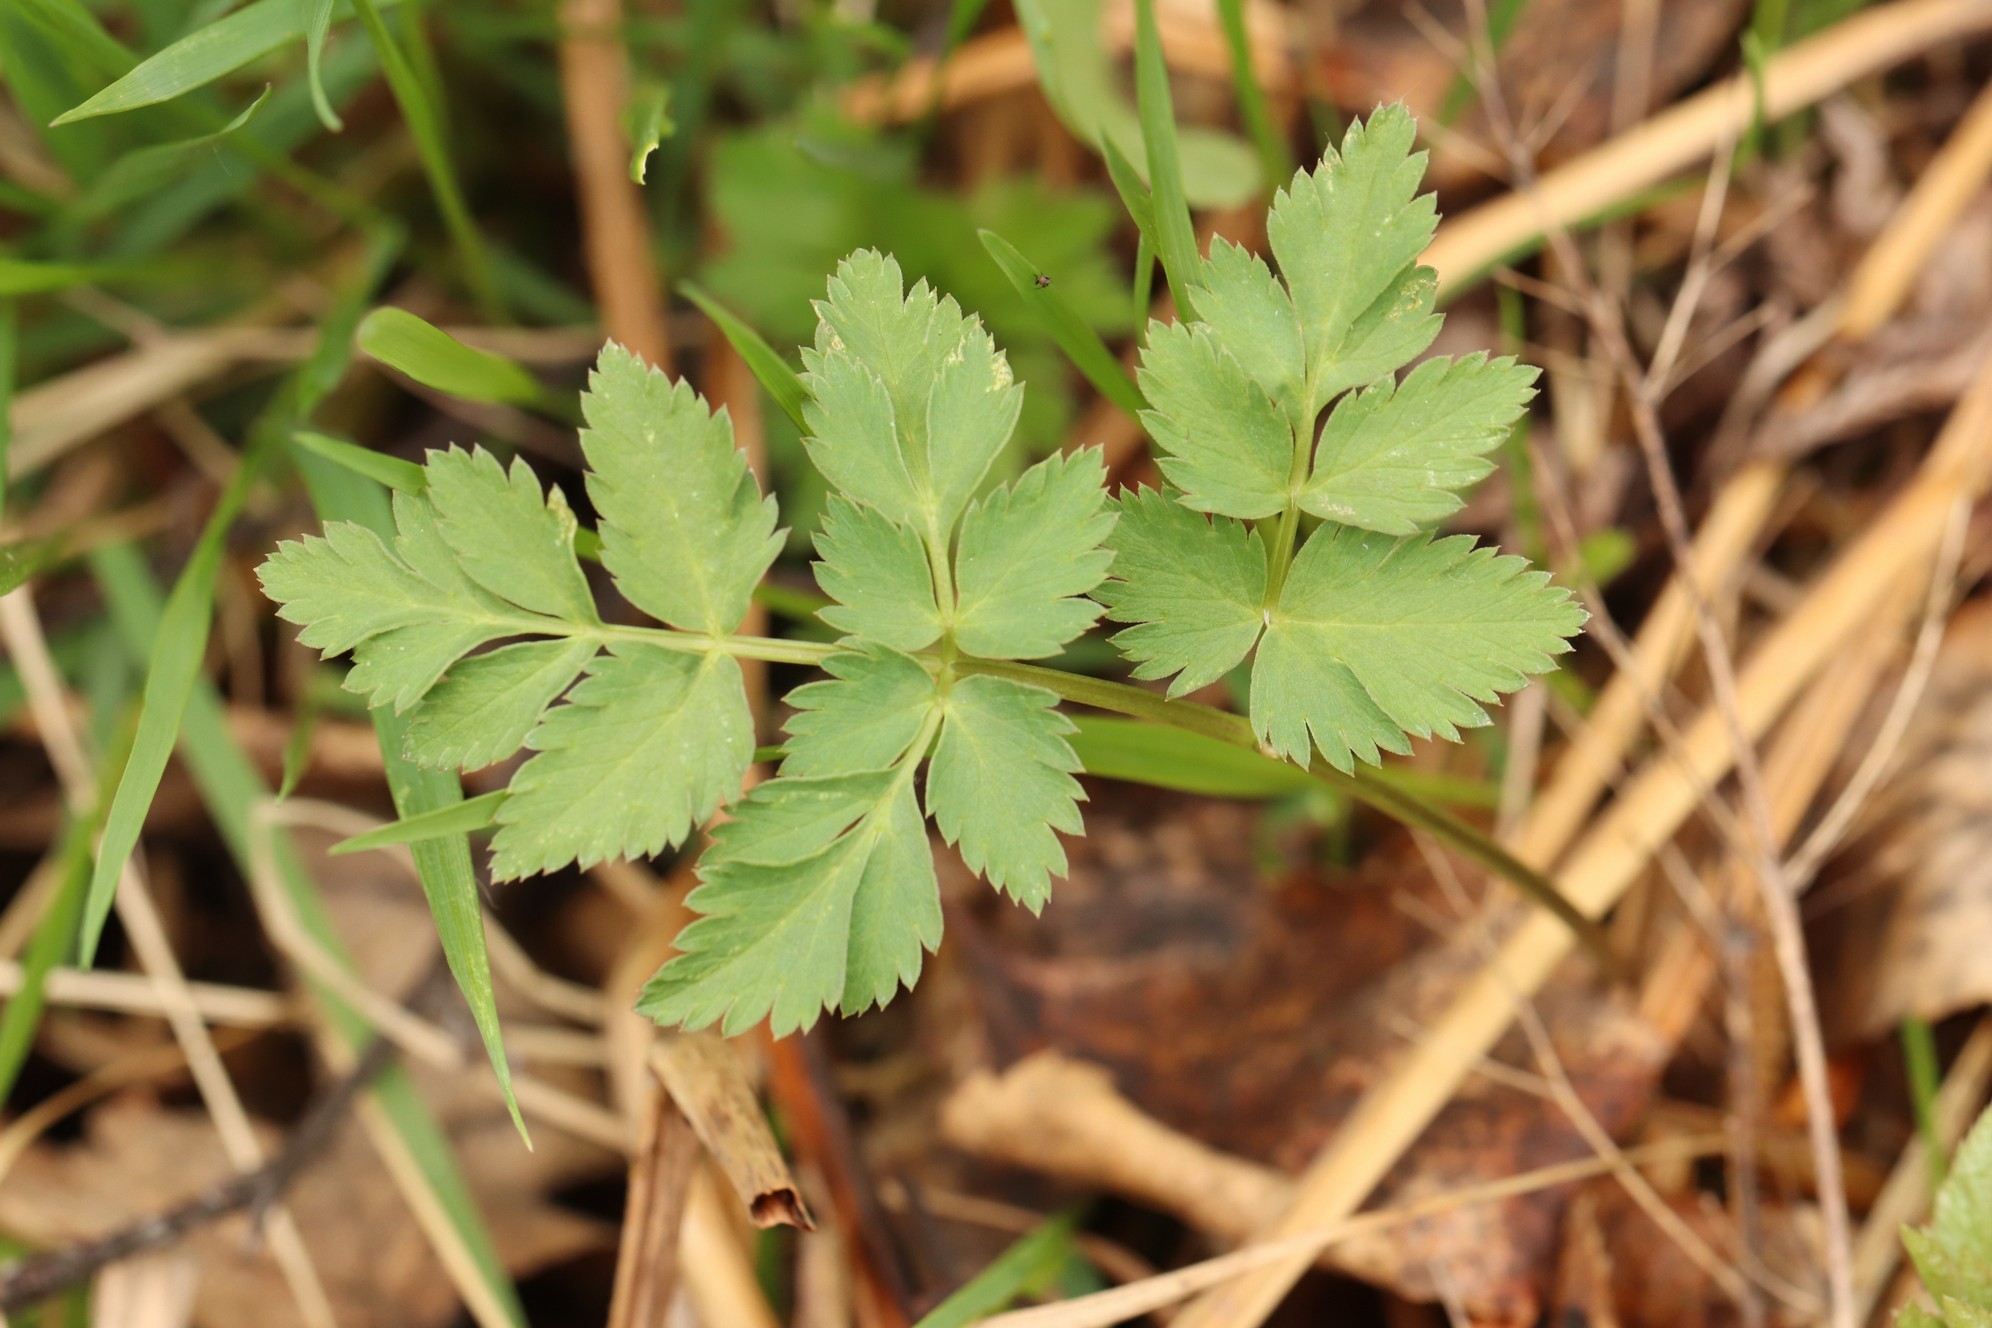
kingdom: Plantae
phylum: Tracheophyta
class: Magnoliopsida
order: Apiales
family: Apiaceae
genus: Aegopodium
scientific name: Aegopodium alpestre
